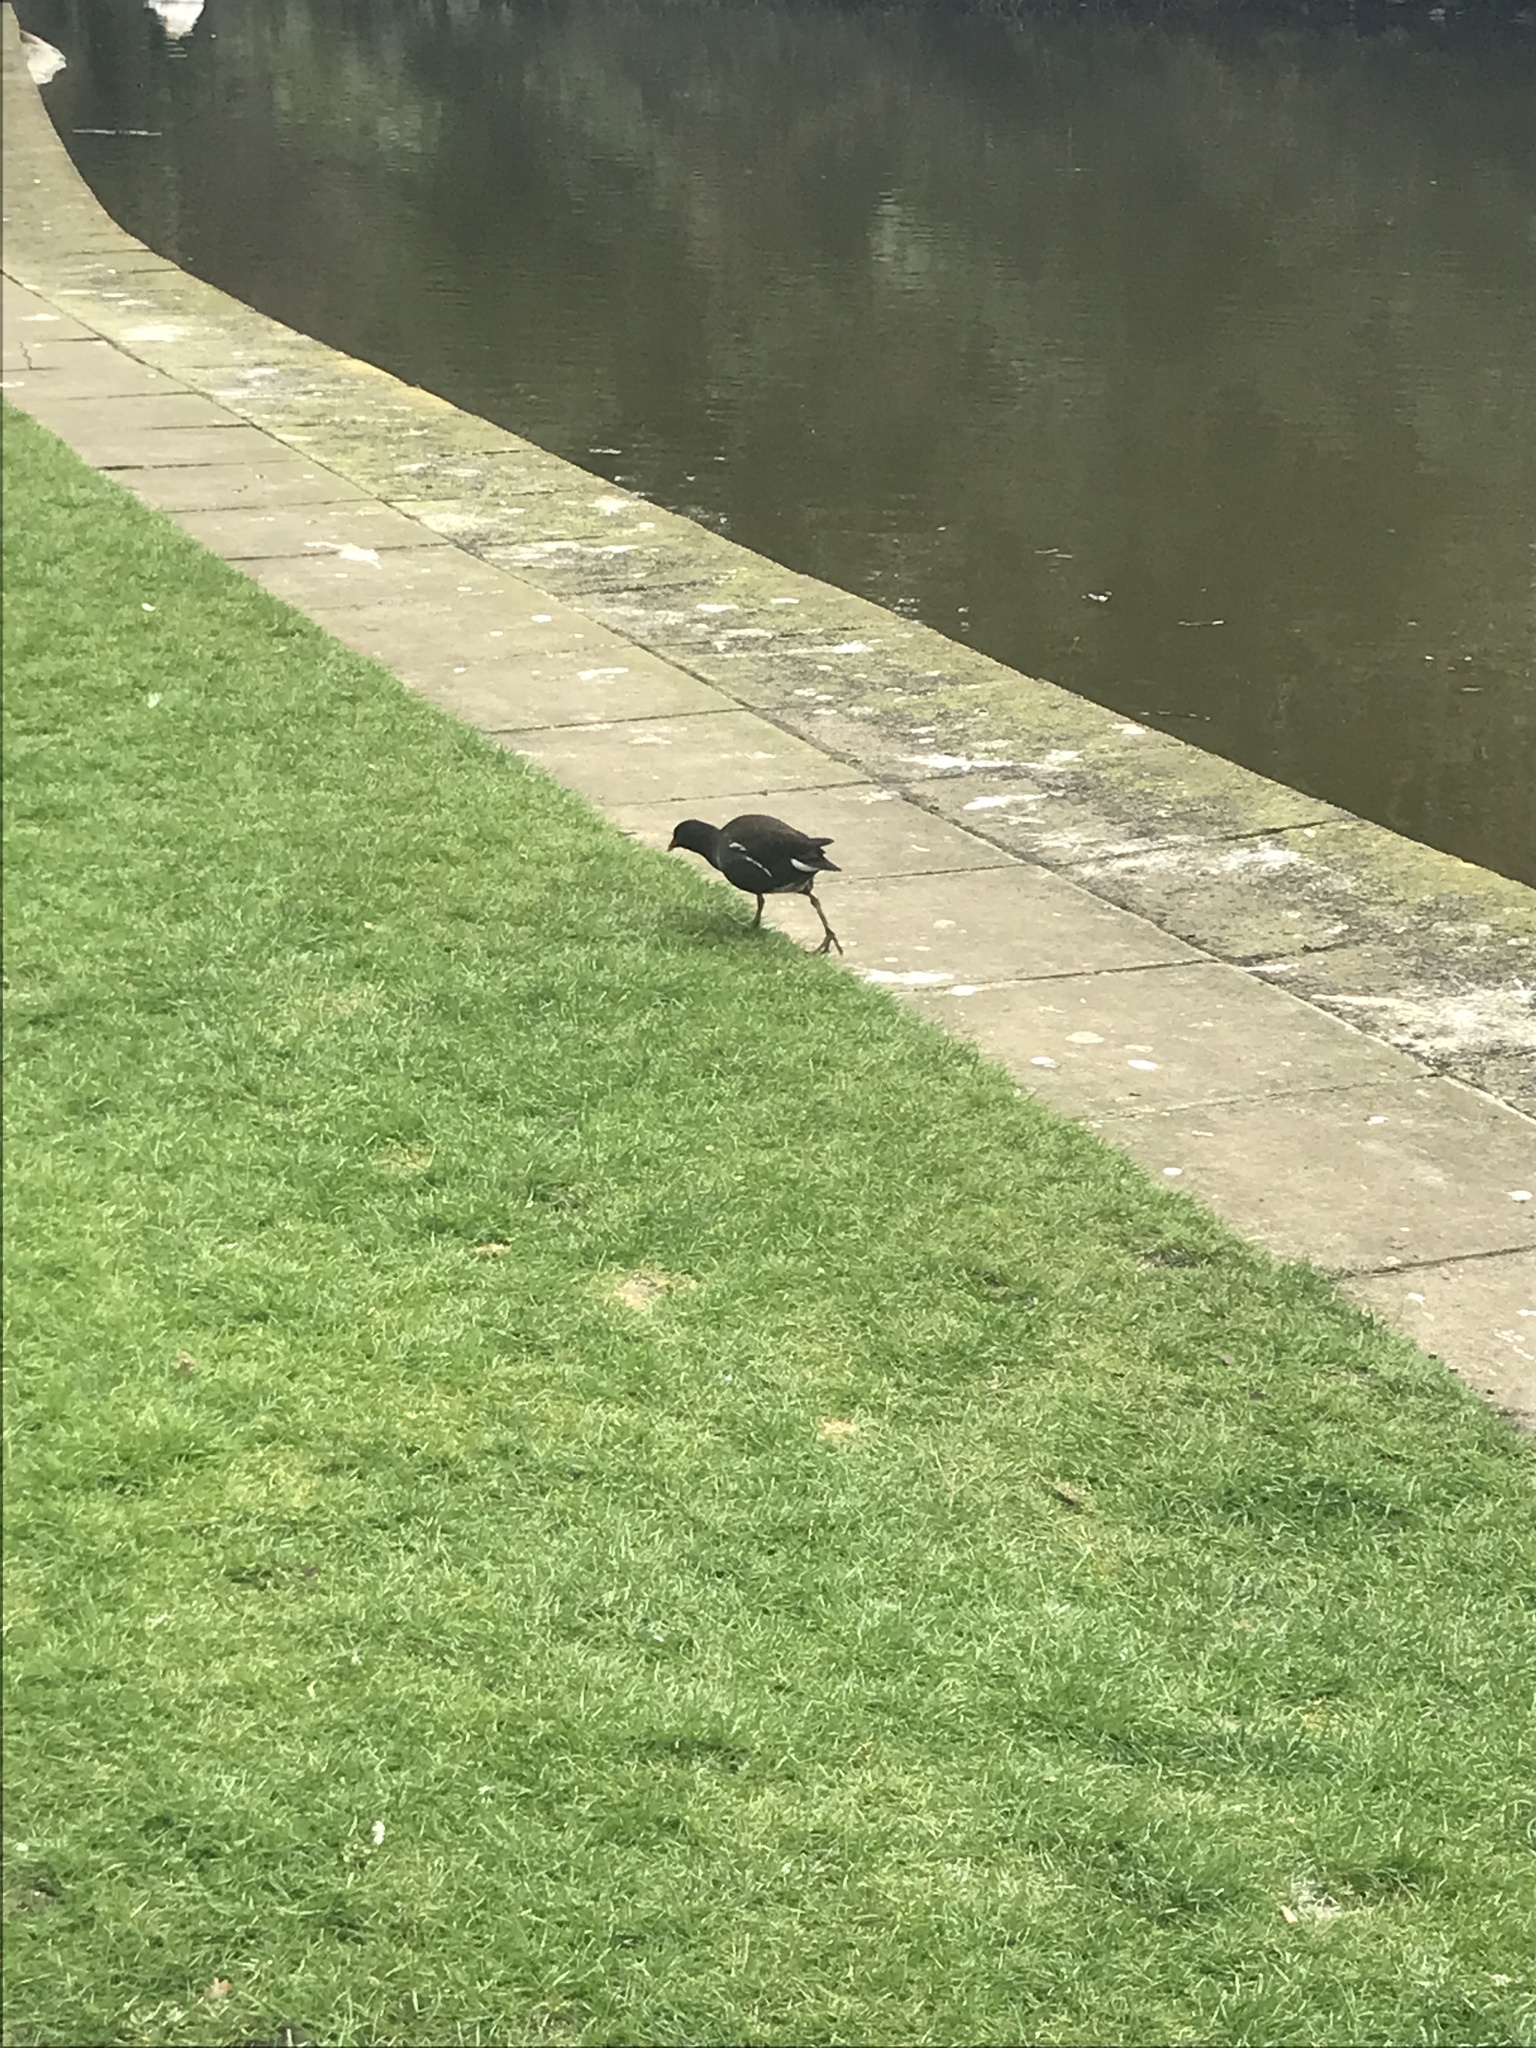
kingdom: Animalia
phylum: Chordata
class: Aves
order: Gruiformes
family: Rallidae
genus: Gallinula
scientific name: Gallinula chloropus
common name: Common moorhen
